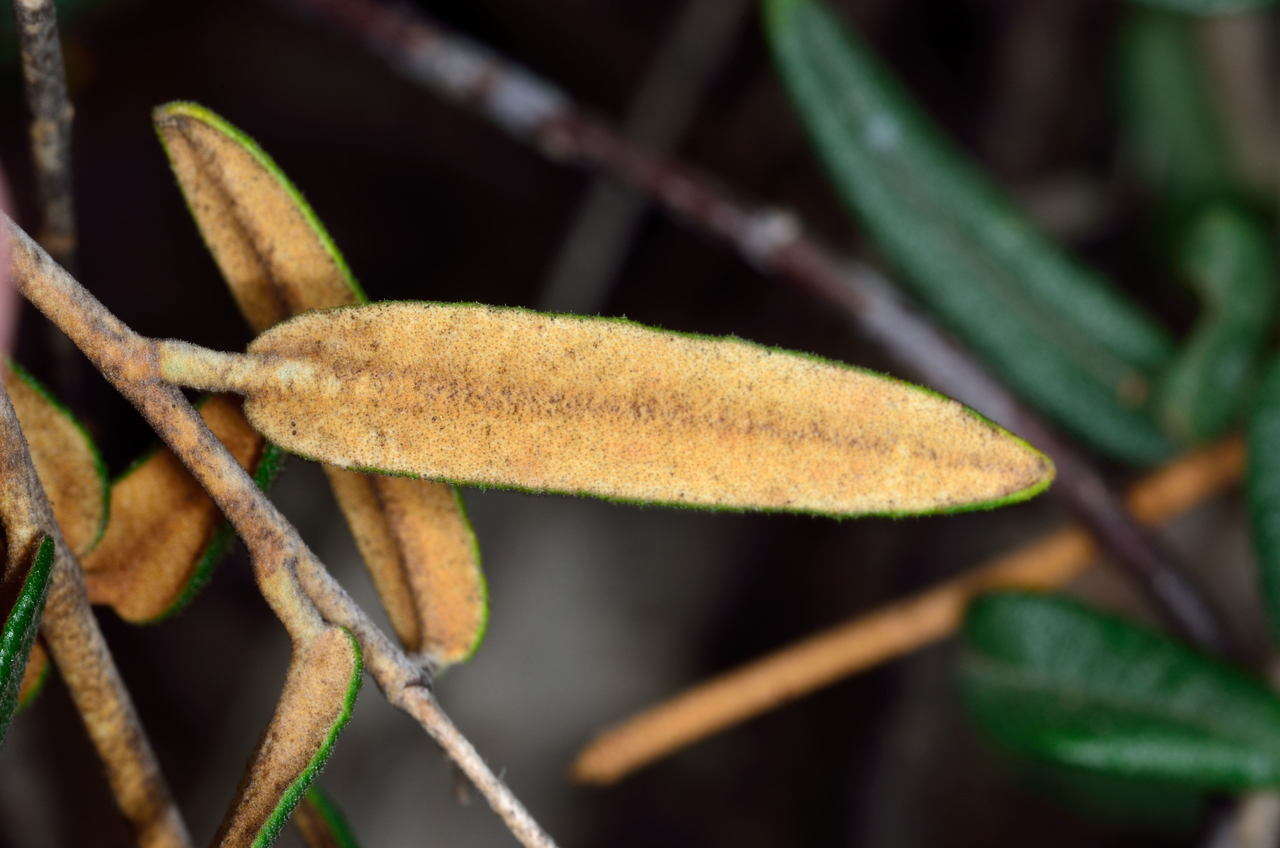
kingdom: Plantae
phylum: Tracheophyta
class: Magnoliopsida
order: Apiales
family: Araliaceae
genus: Astrotricha
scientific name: Astrotricha ledifolia
